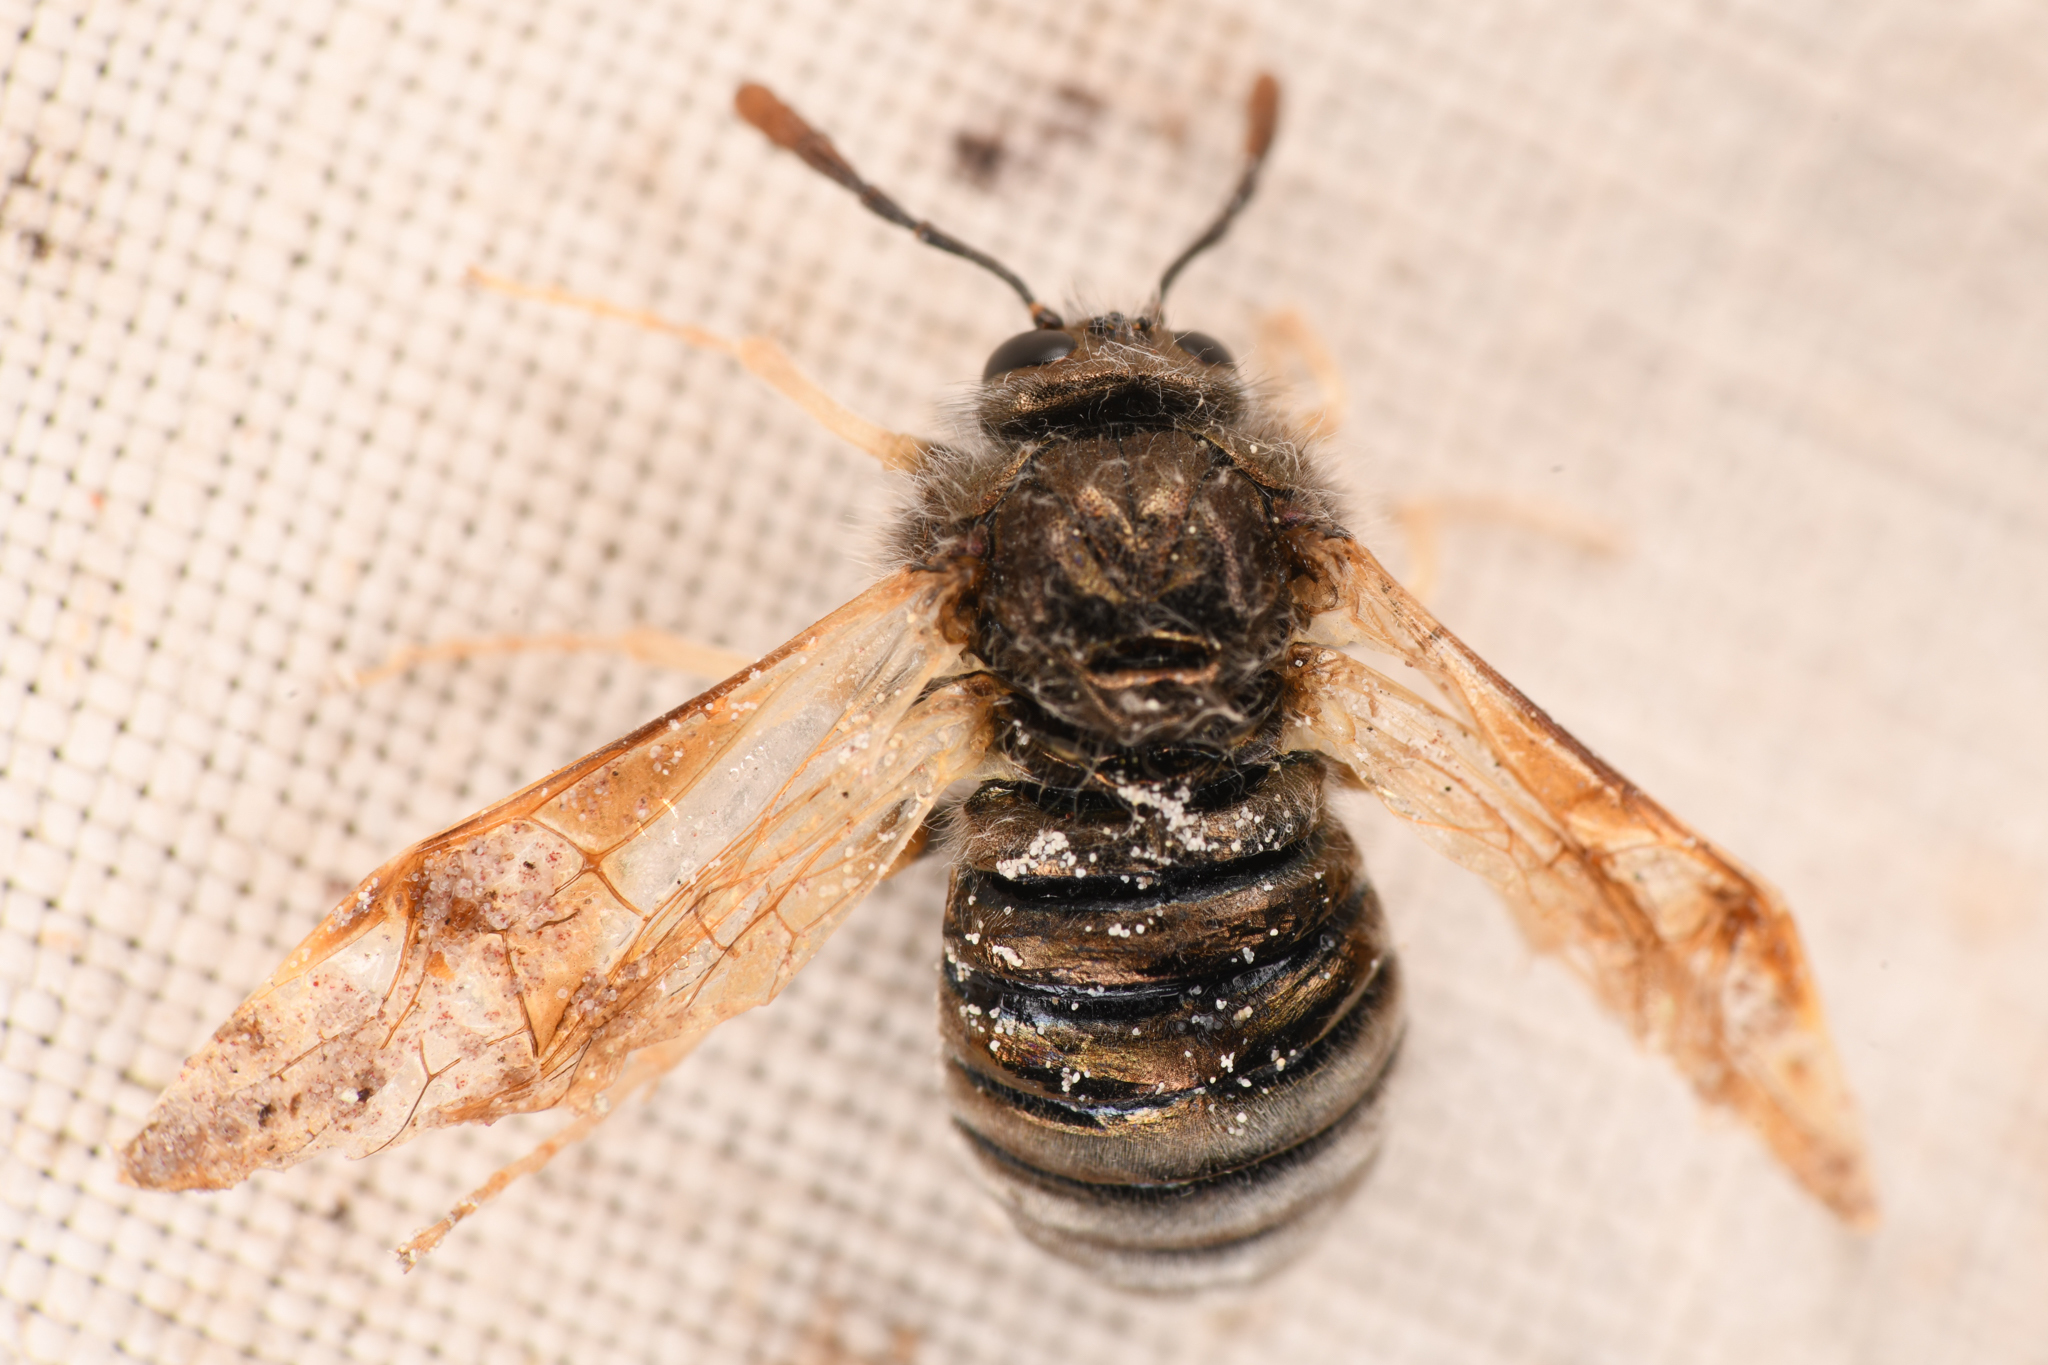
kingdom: Animalia
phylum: Arthropoda
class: Insecta
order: Hymenoptera
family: Cimbicidae
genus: Abia
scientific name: Abia americana
